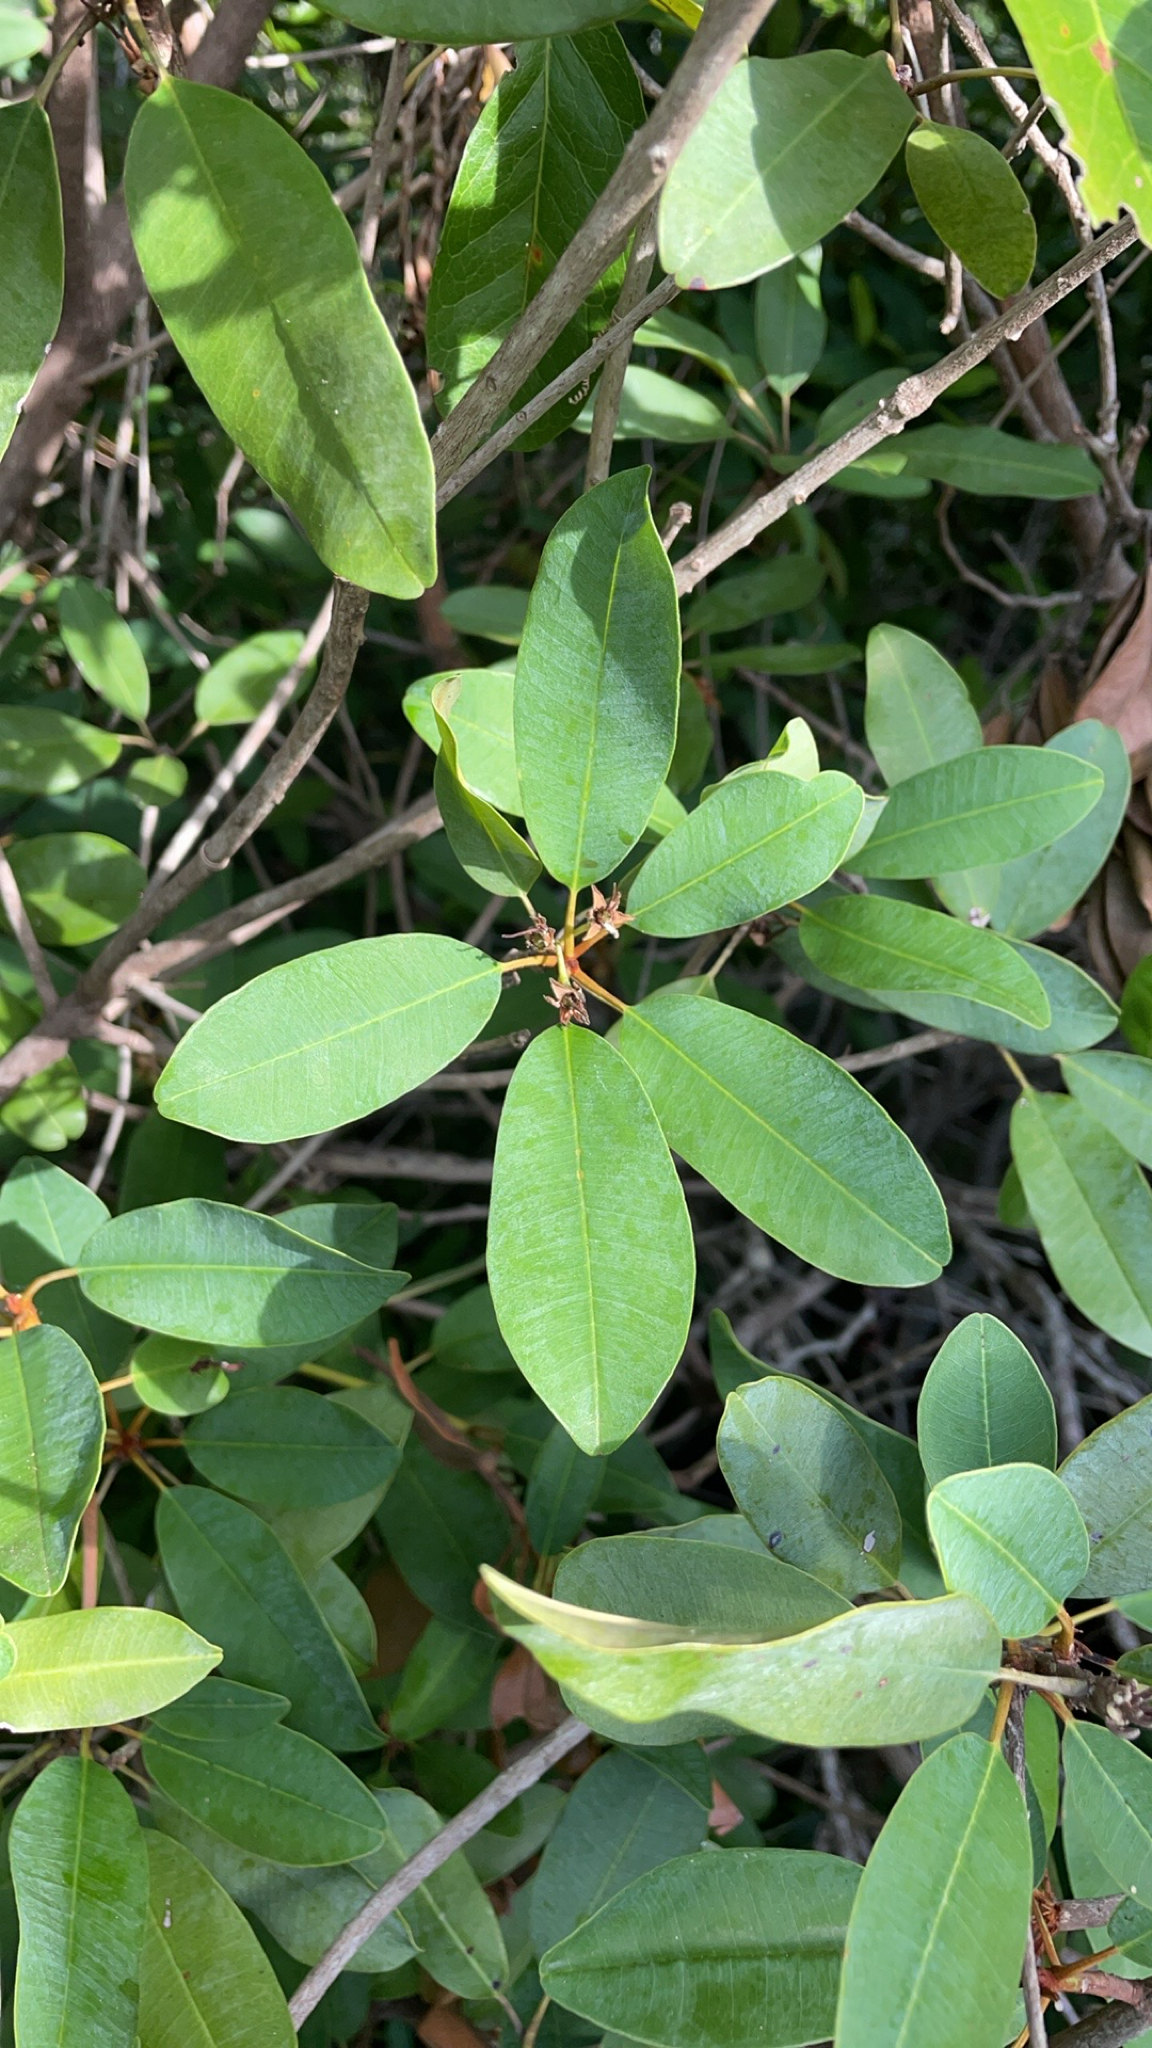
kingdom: Plantae
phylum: Tracheophyta
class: Magnoliopsida
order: Ericales
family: Sapotaceae
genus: Manilkara
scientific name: Manilkara jaimiqui
